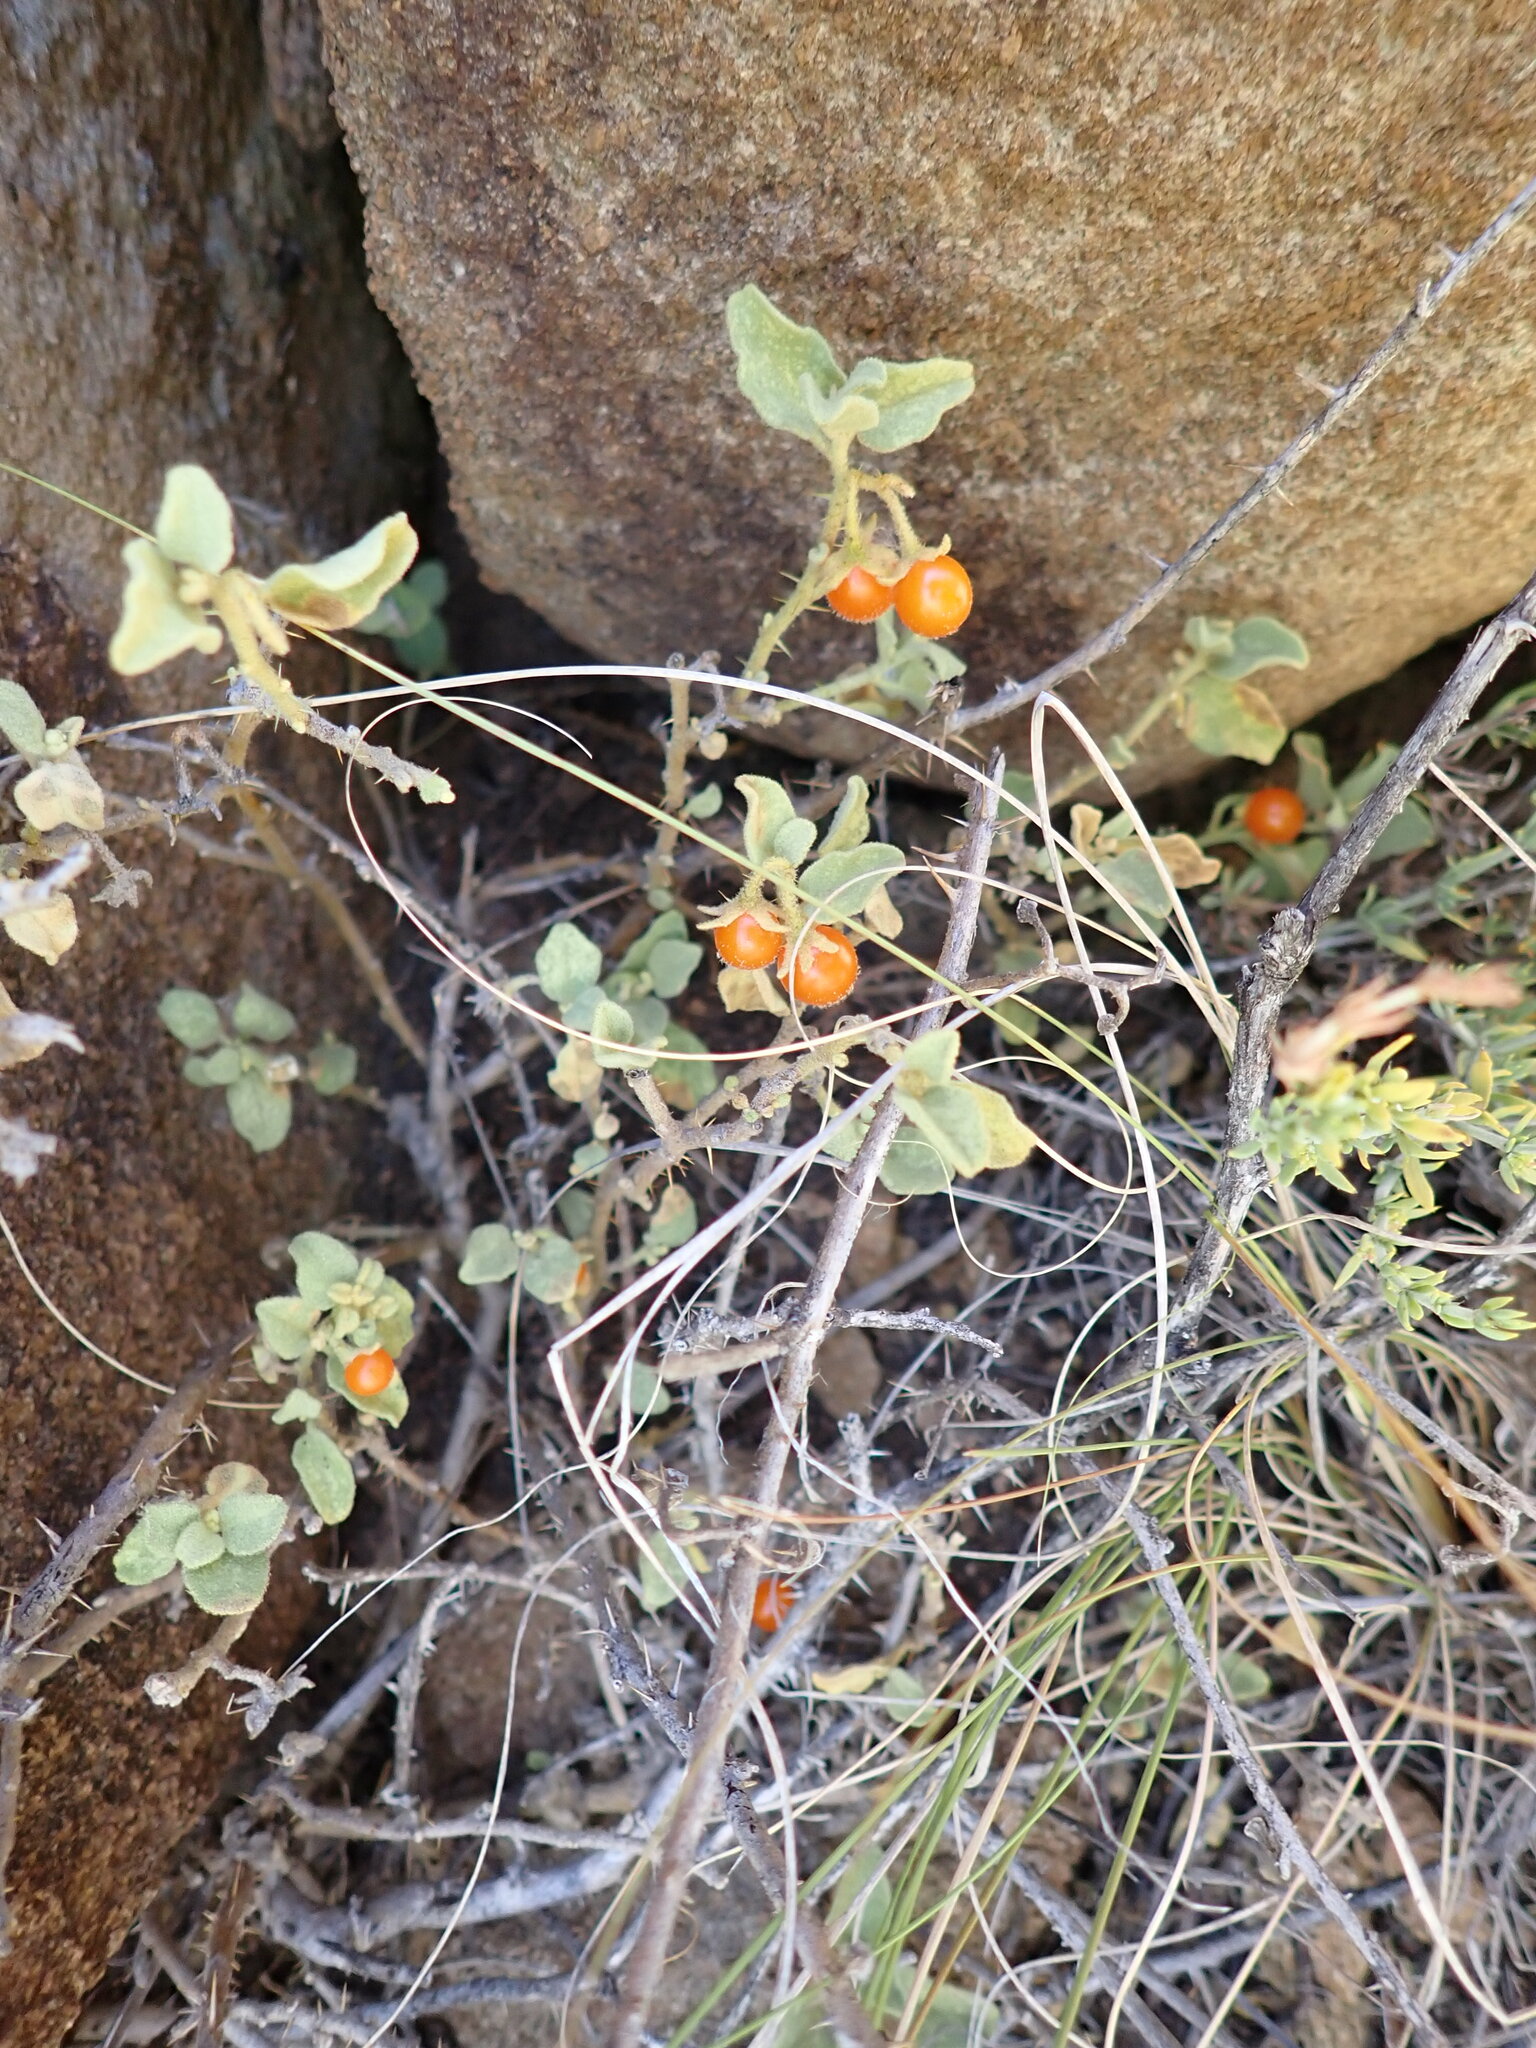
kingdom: Plantae
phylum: Tracheophyta
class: Magnoliopsida
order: Solanales
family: Solanaceae
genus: Solanum
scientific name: Solanum tomentosum
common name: Wild aubergine
